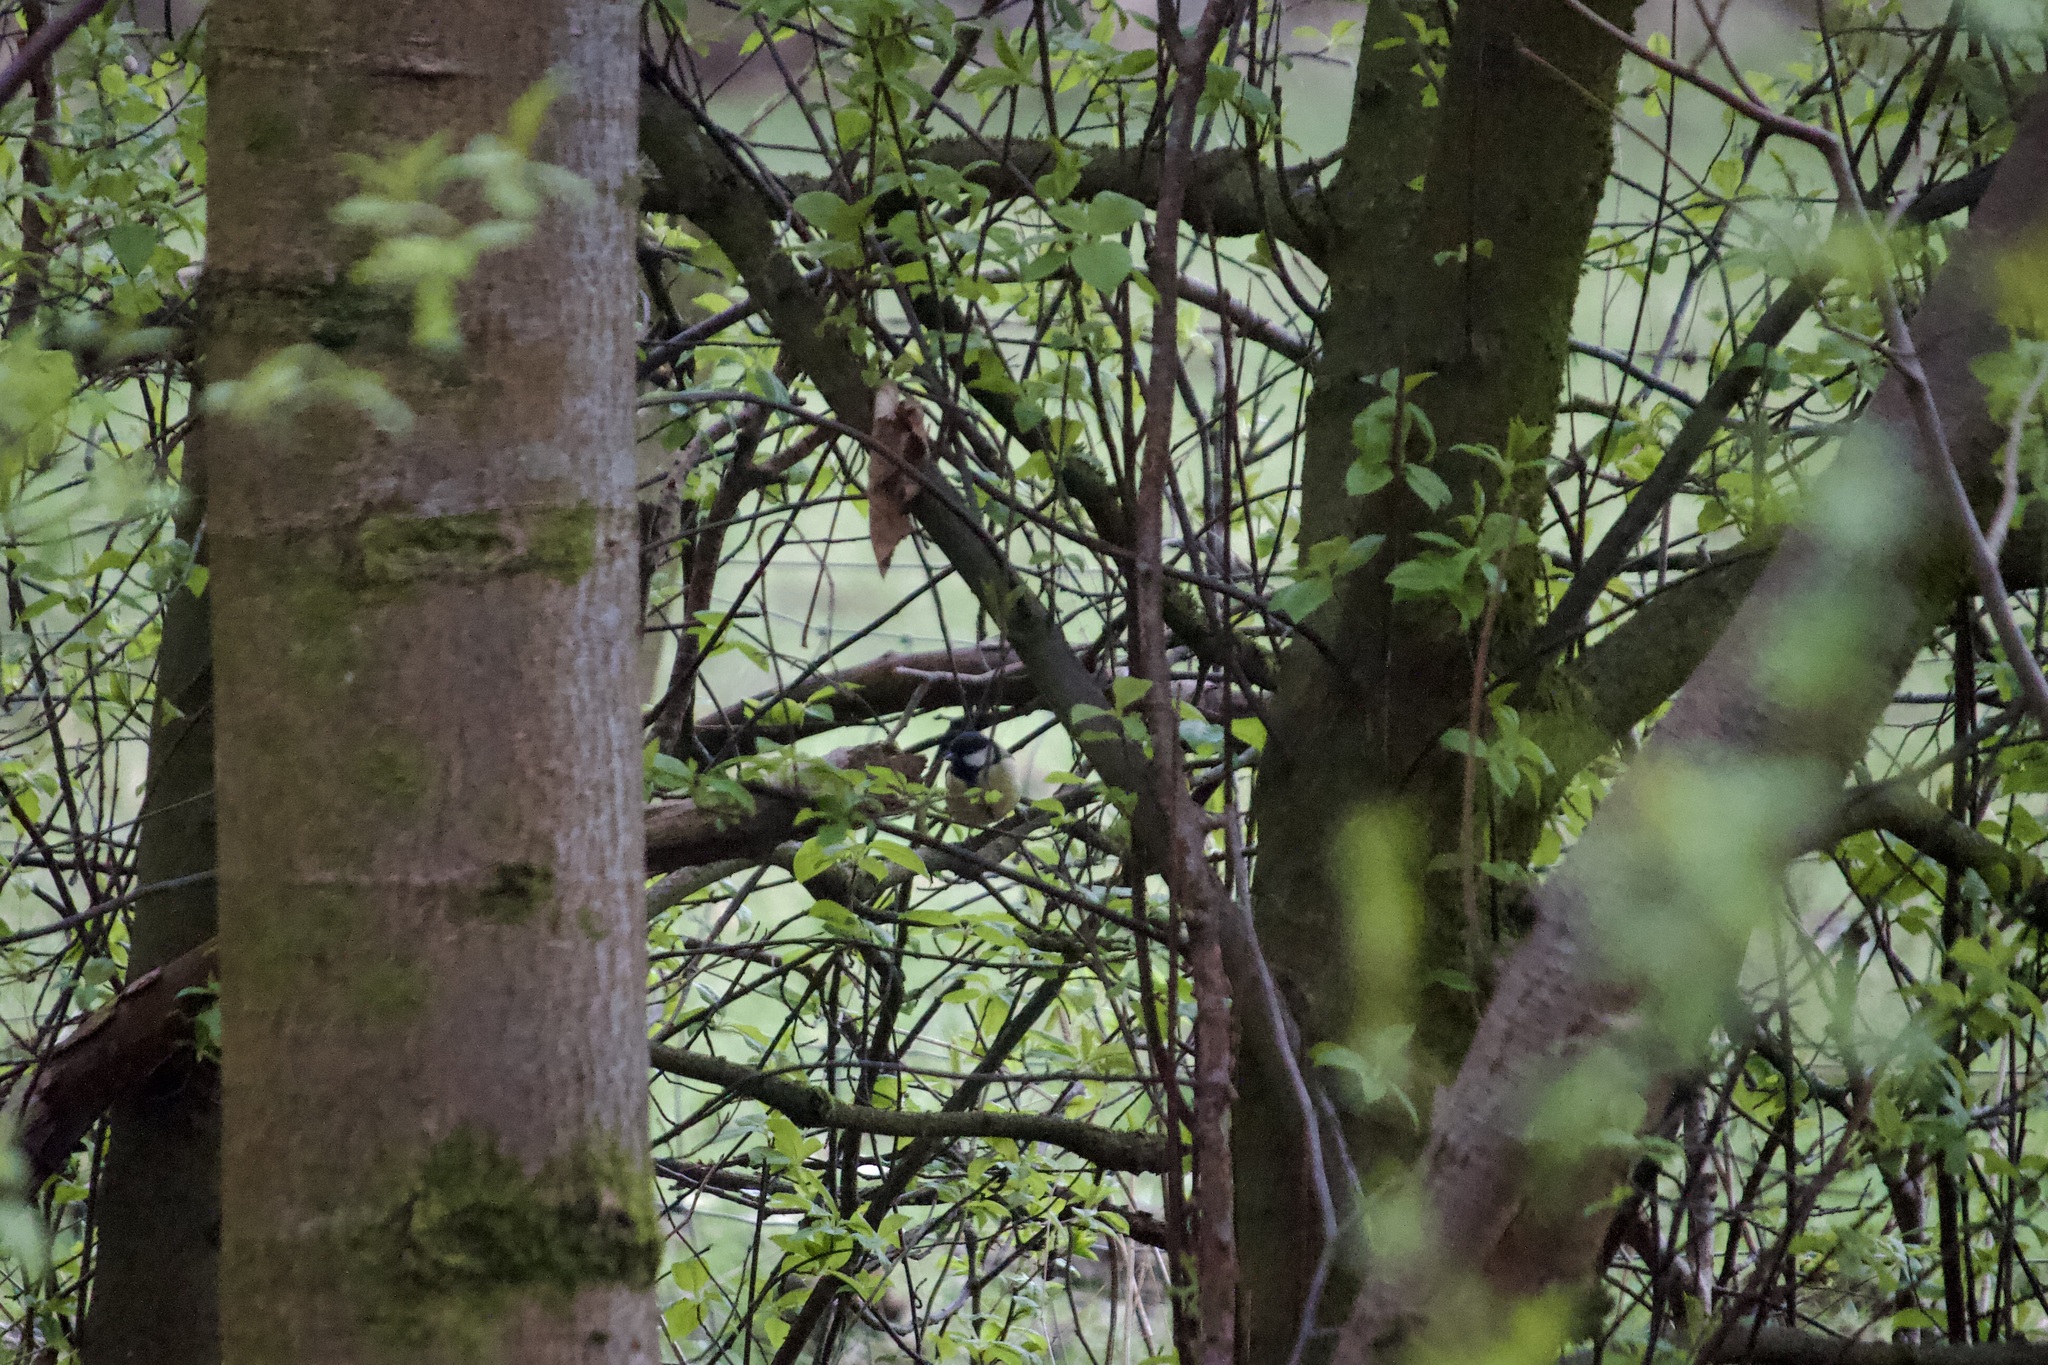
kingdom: Animalia
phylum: Chordata
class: Aves
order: Passeriformes
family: Paridae
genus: Parus
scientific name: Parus major
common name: Great tit
